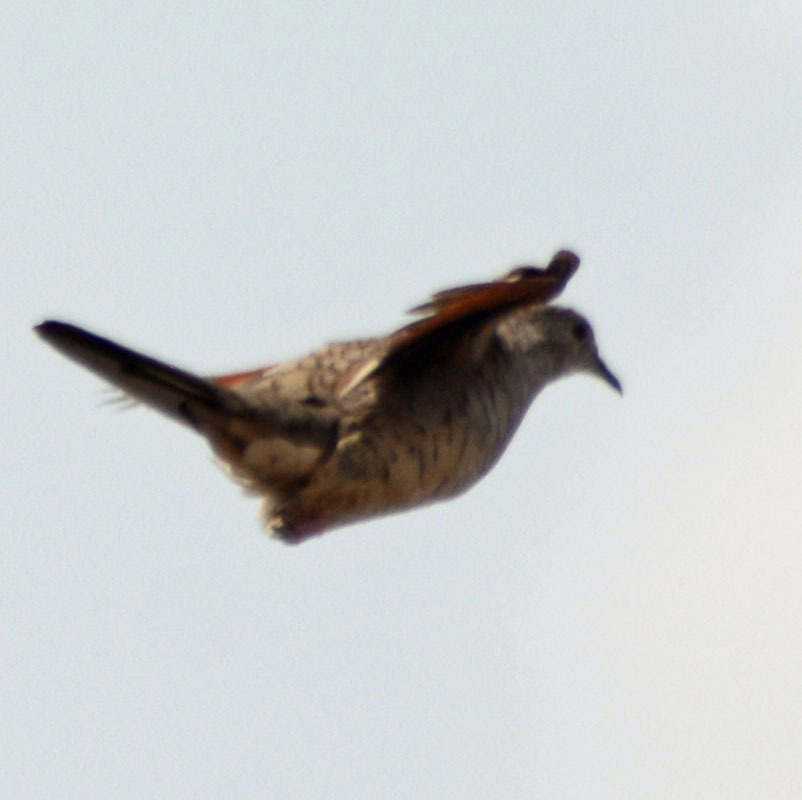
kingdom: Animalia
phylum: Chordata
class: Aves
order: Columbiformes
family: Columbidae
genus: Columbina
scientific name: Columbina inca
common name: Inca dove
